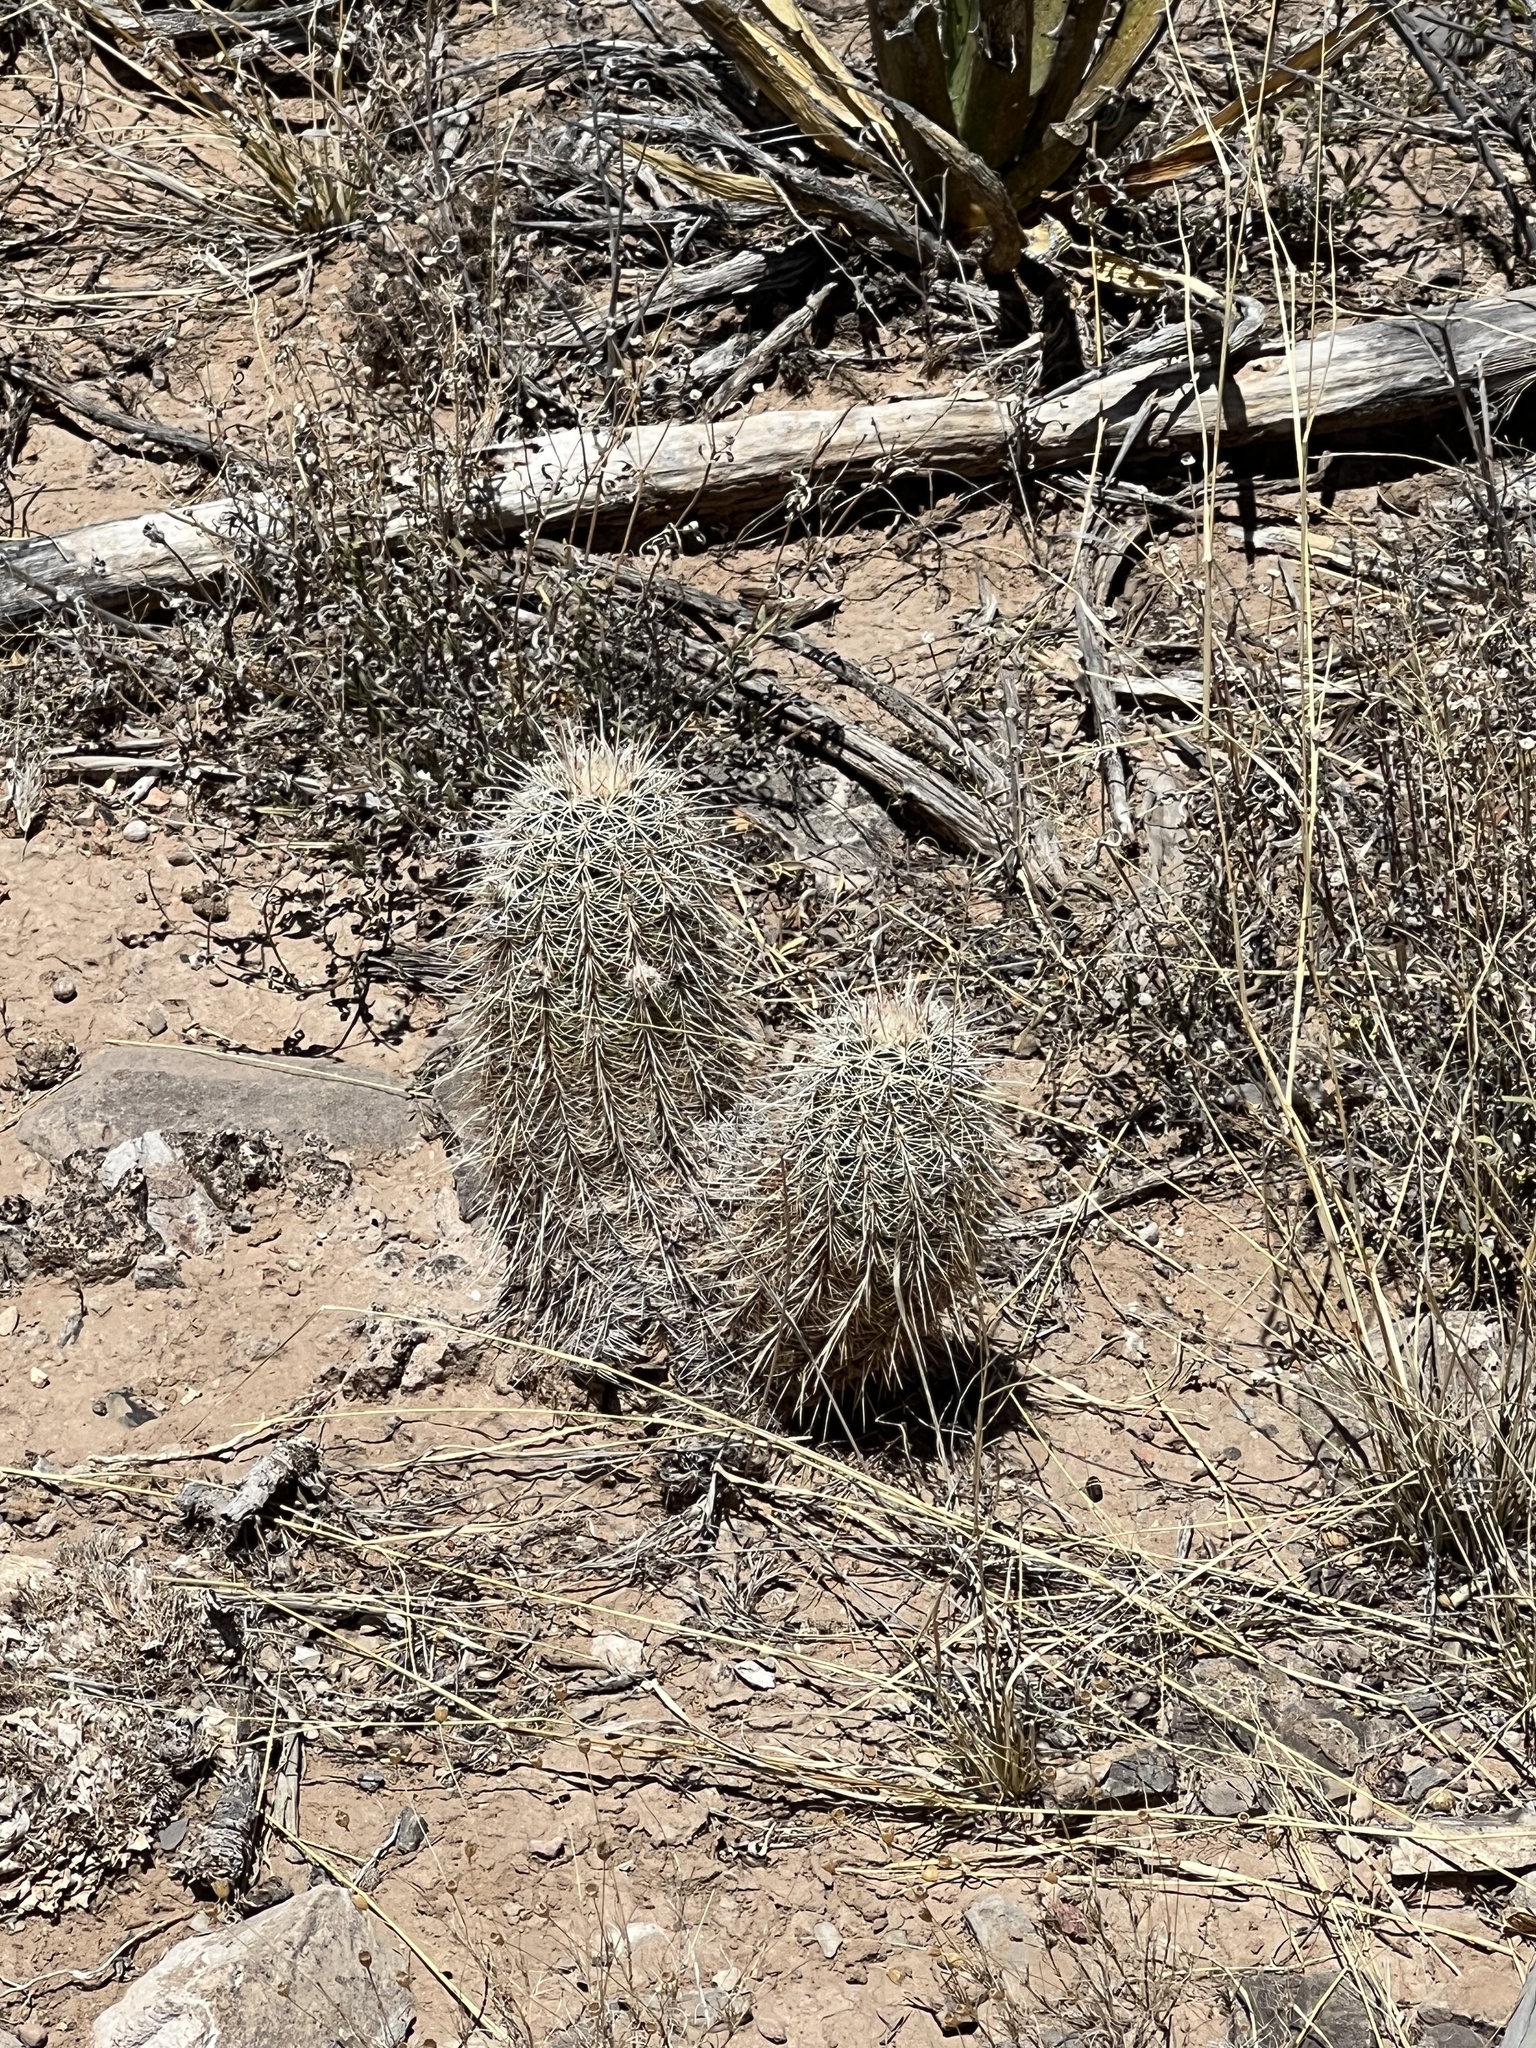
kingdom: Plantae
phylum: Tracheophyta
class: Magnoliopsida
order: Caryophyllales
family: Cactaceae
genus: Echinocereus
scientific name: Echinocereus viridiflorus
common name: Nylon hedgehog cactus
